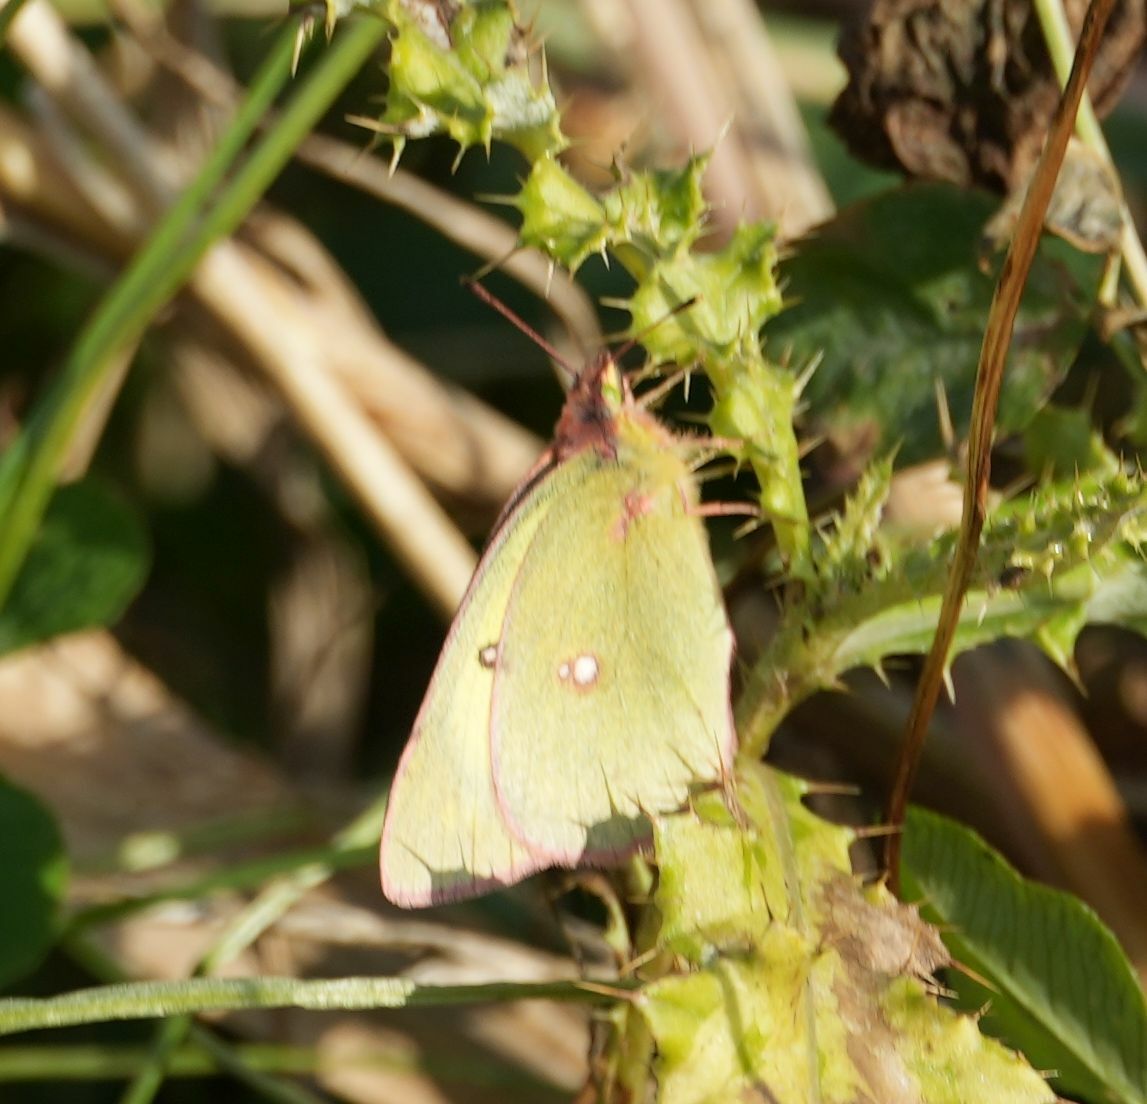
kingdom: Animalia
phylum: Arthropoda
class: Insecta
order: Lepidoptera
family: Pieridae
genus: Colias
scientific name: Colias philodice
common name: Clouded sulphur
